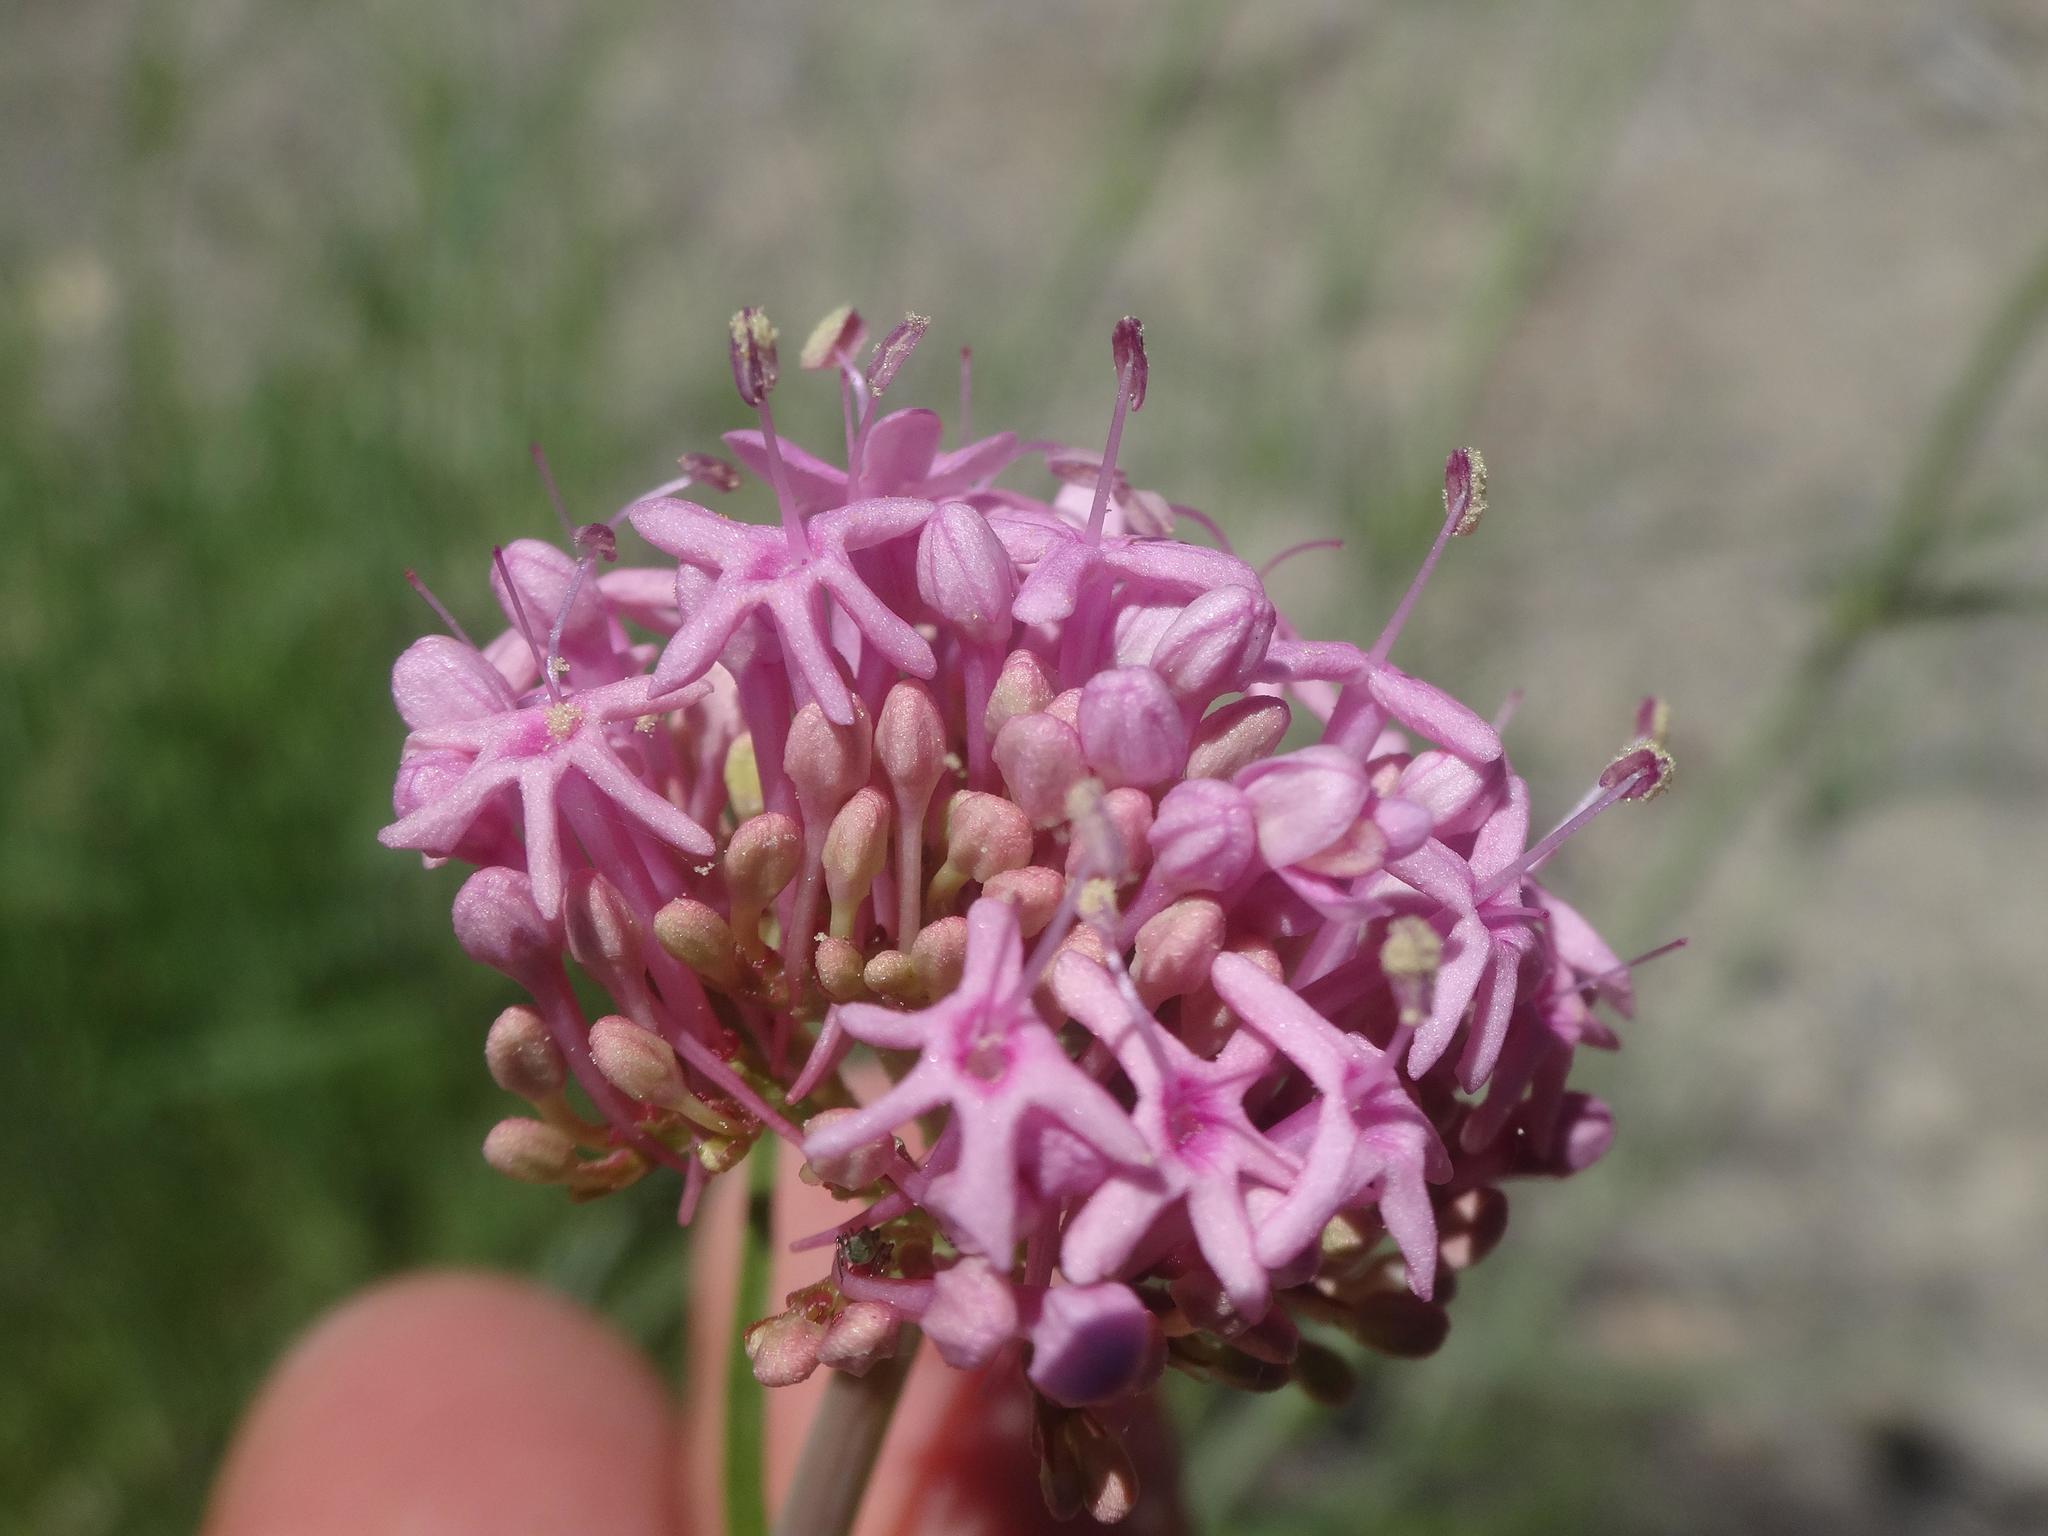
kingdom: Plantae
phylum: Tracheophyta
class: Magnoliopsida
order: Dipsacales
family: Caprifoliaceae
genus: Centranthus
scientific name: Centranthus angustifolius
